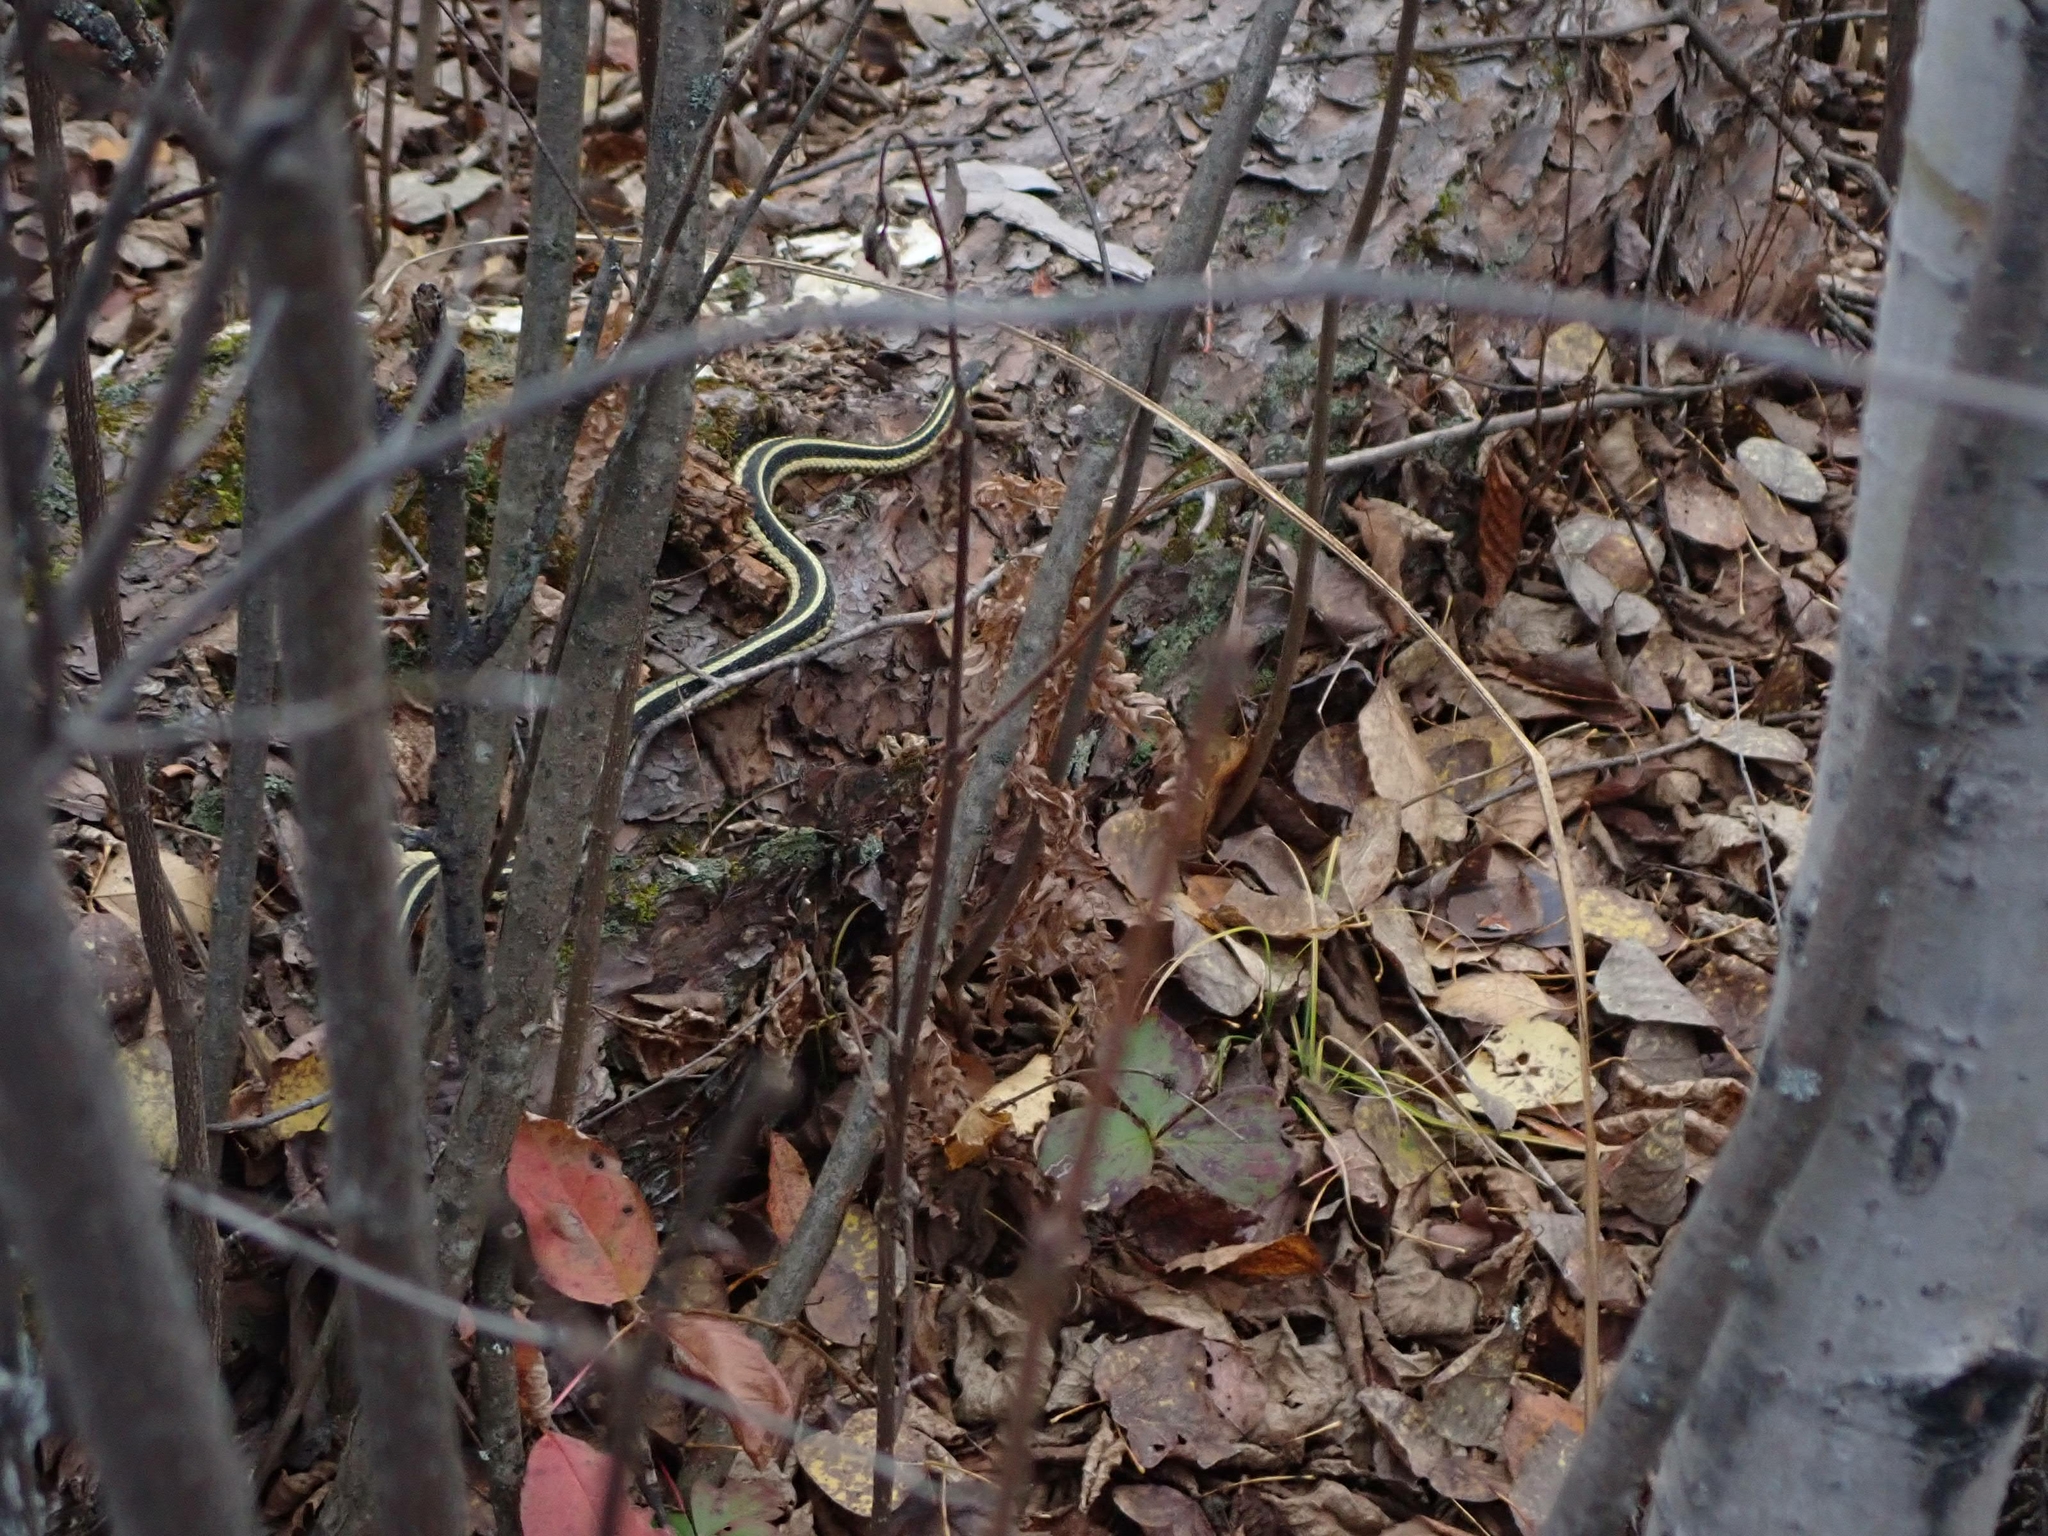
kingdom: Animalia
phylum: Chordata
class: Squamata
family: Colubridae
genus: Thamnophis
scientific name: Thamnophis sirtalis
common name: Common garter snake
